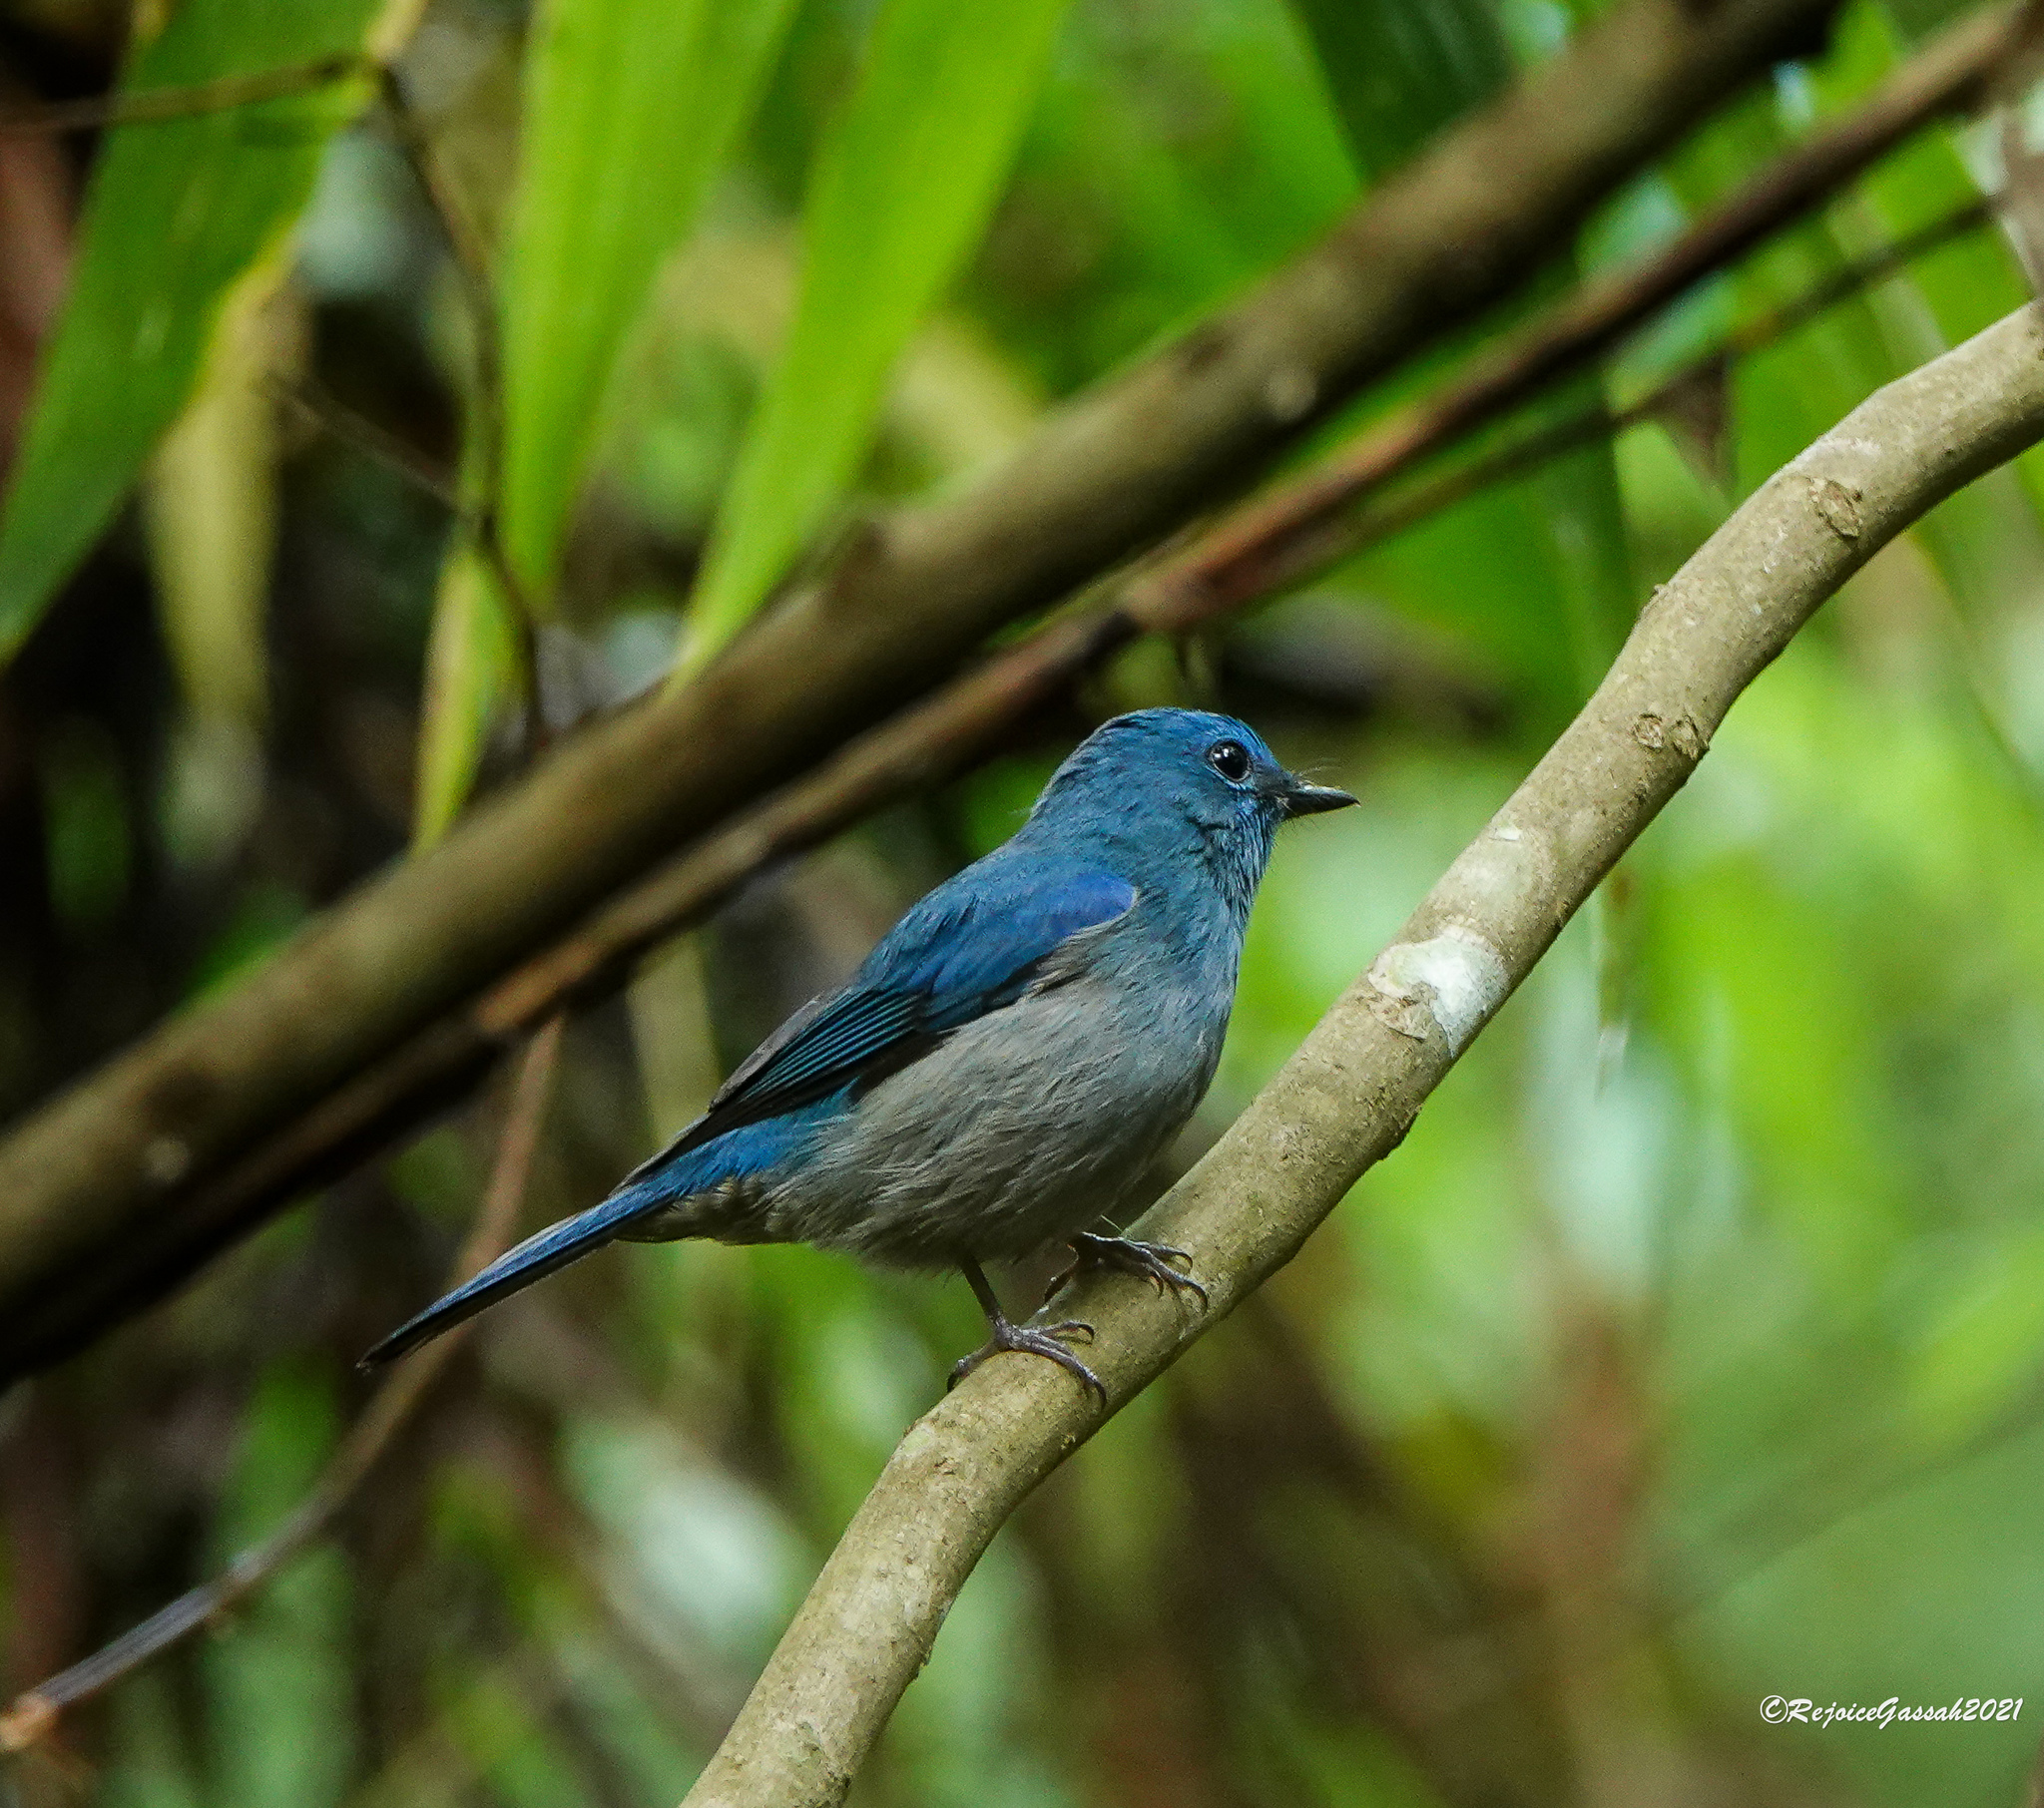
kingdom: Animalia
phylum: Chordata
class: Aves
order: Passeriformes
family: Muscicapidae
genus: Cyornis
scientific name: Cyornis unicolor
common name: Pale blue flycatcher
